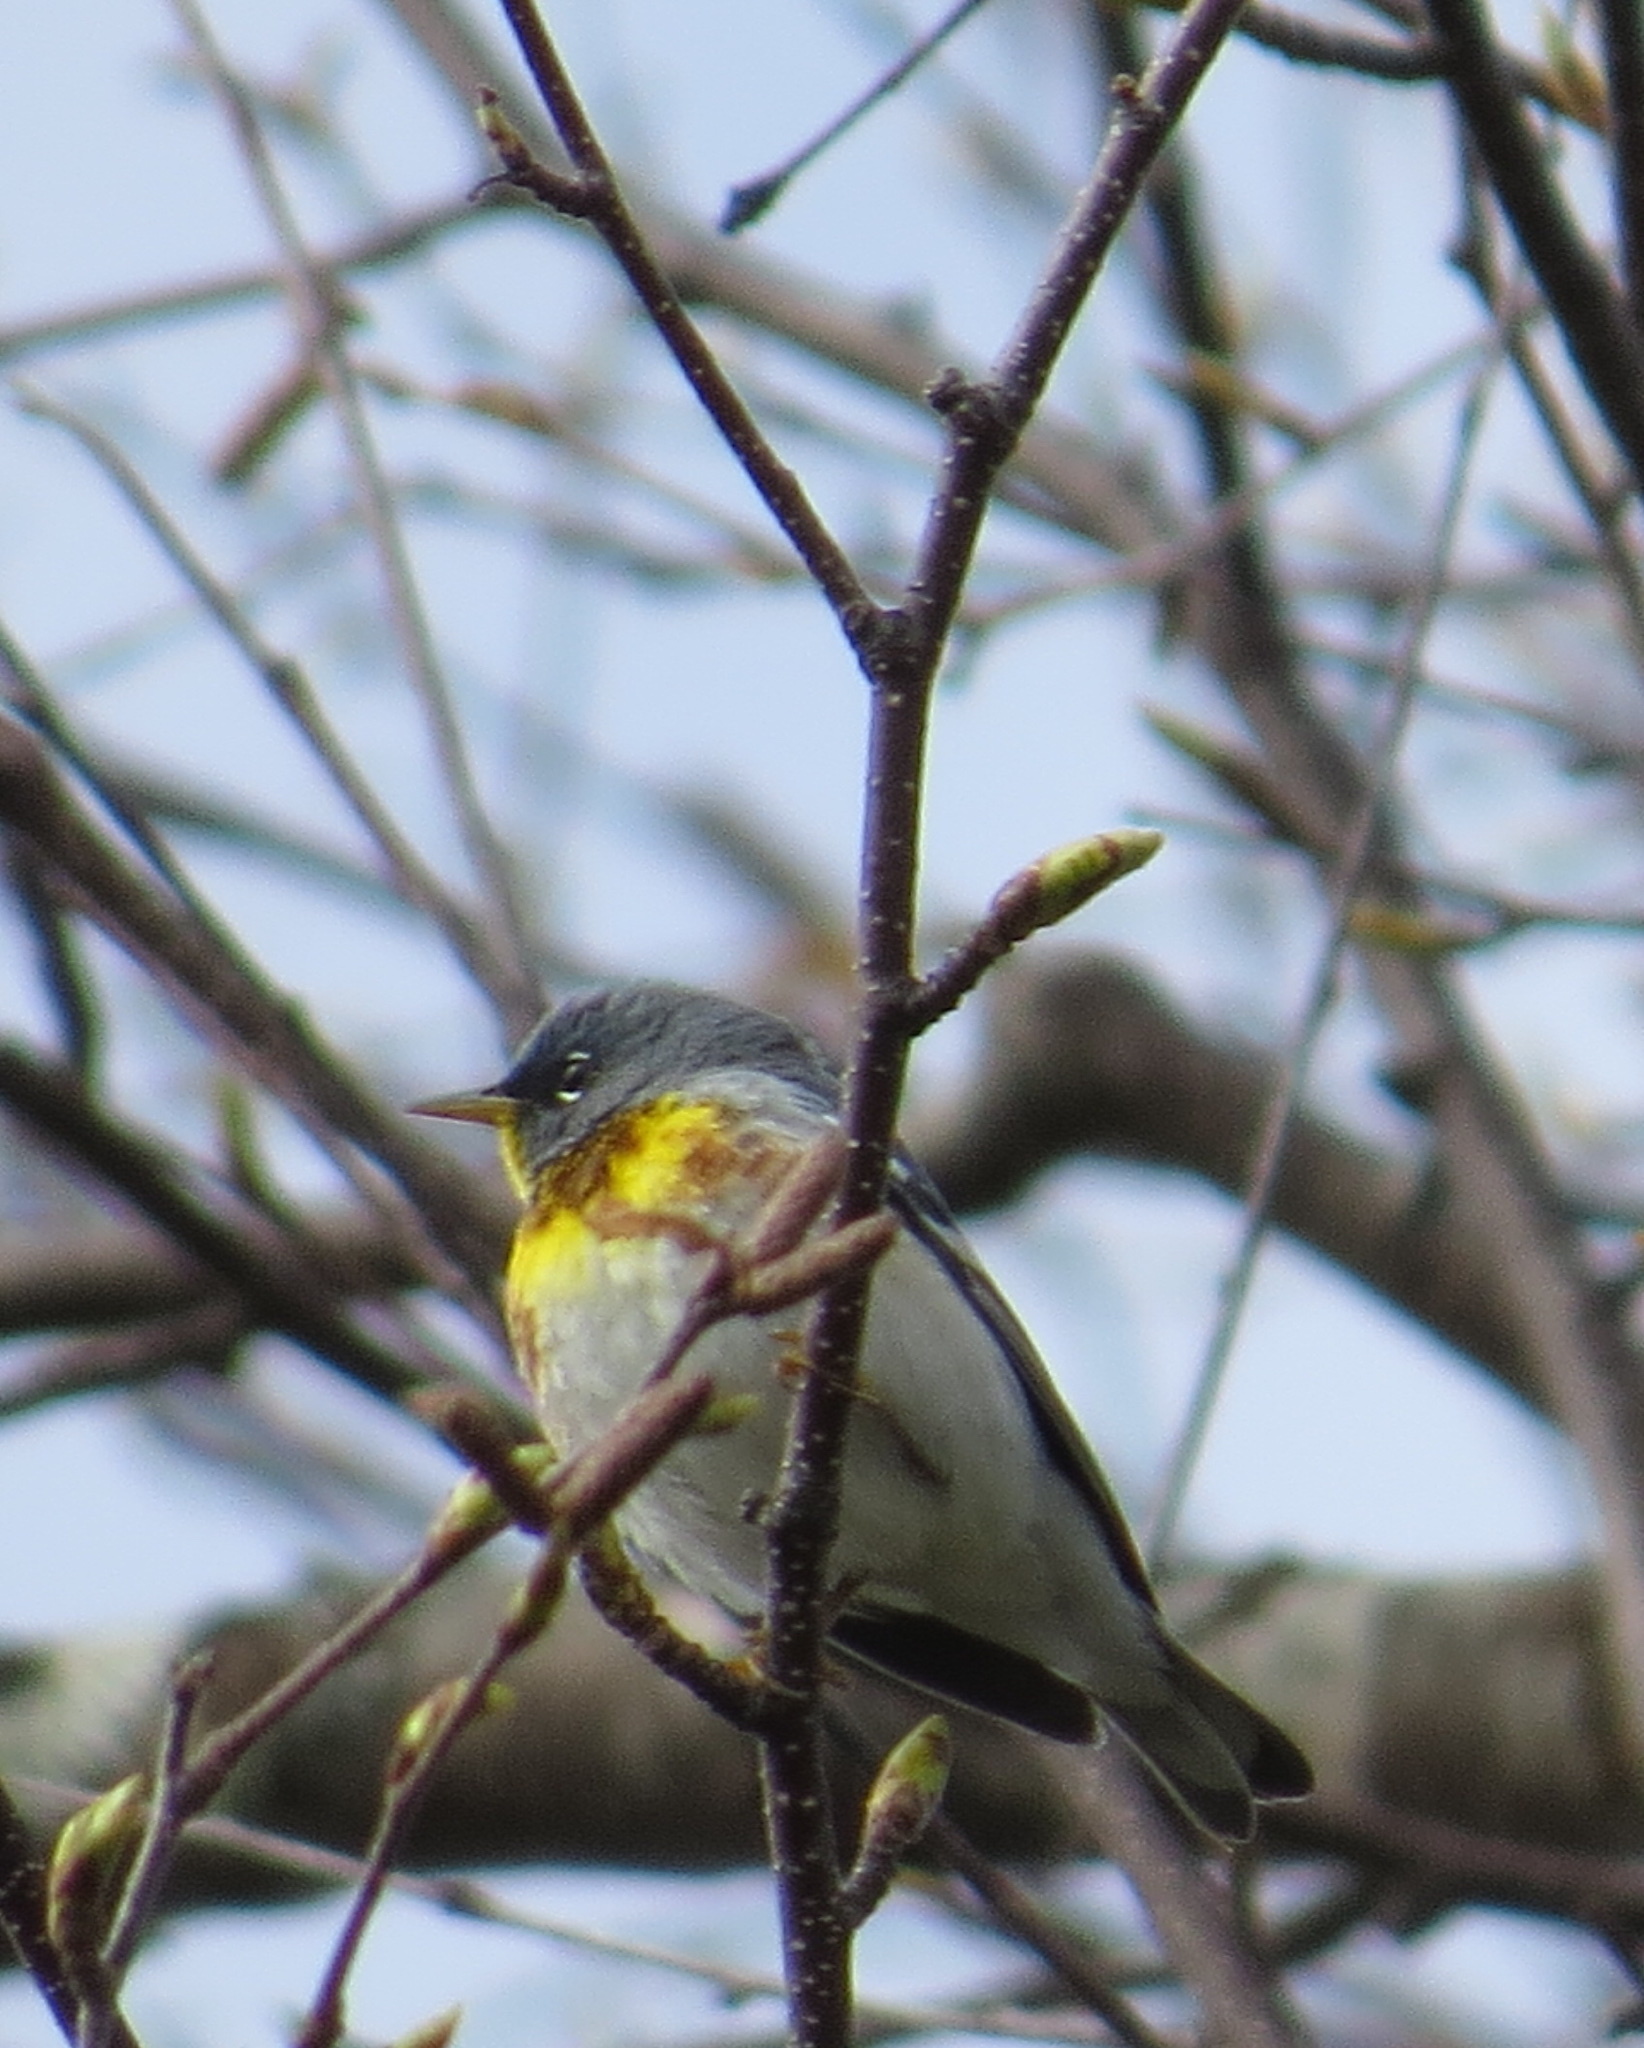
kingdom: Animalia
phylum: Chordata
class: Aves
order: Passeriformes
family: Parulidae
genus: Setophaga
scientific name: Setophaga americana
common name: Northern parula
